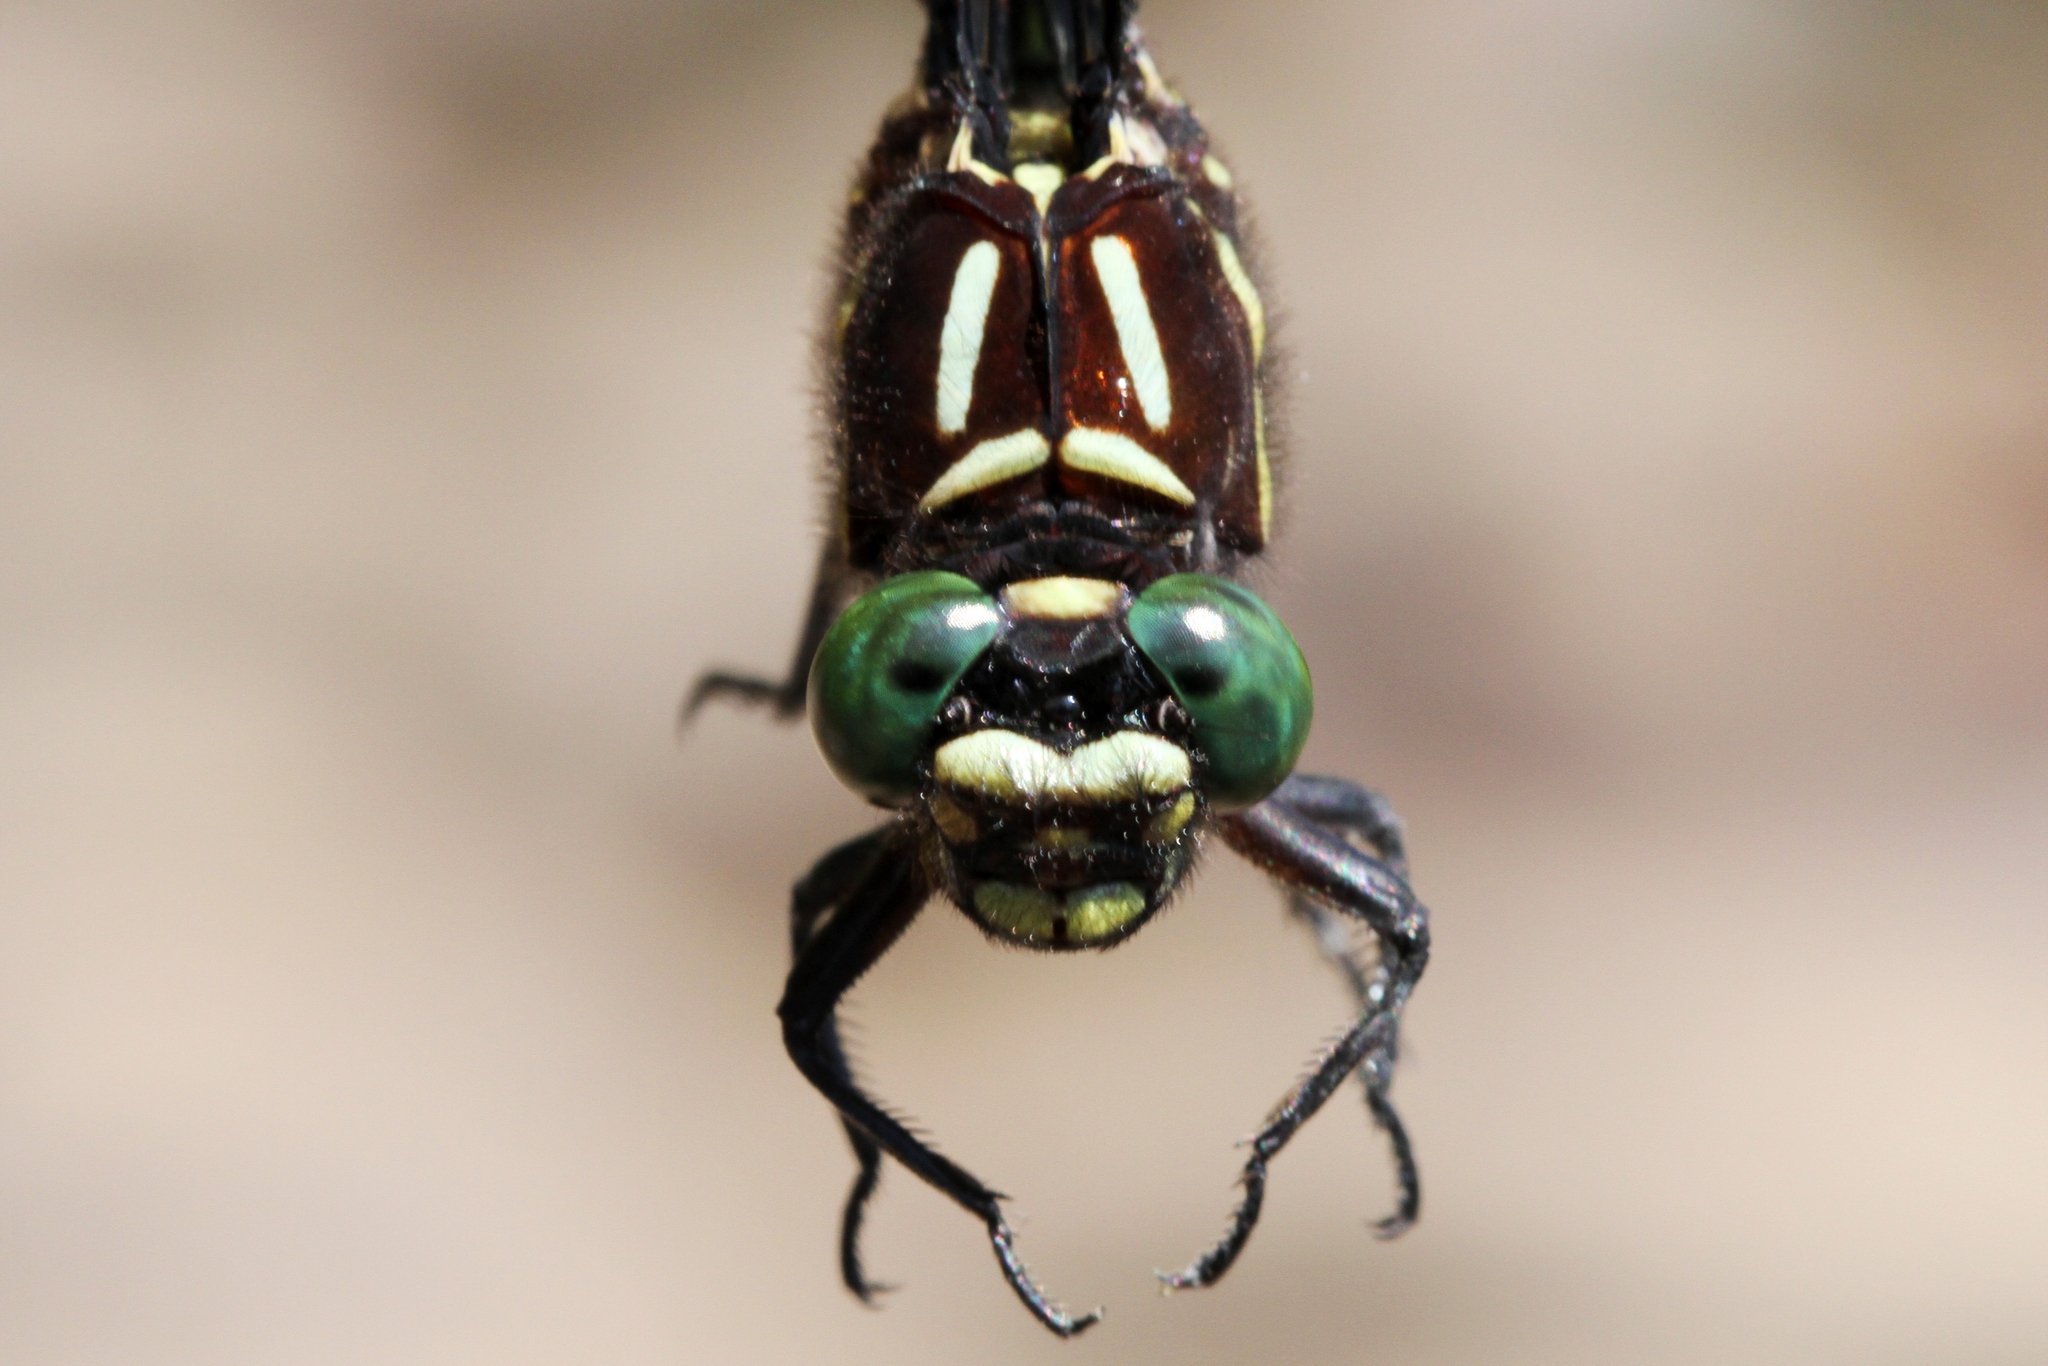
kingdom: Animalia
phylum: Arthropoda
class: Insecta
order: Odonata
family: Gomphidae
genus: Stylurus
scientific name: Stylurus scudderi
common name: Zebra clubtail
